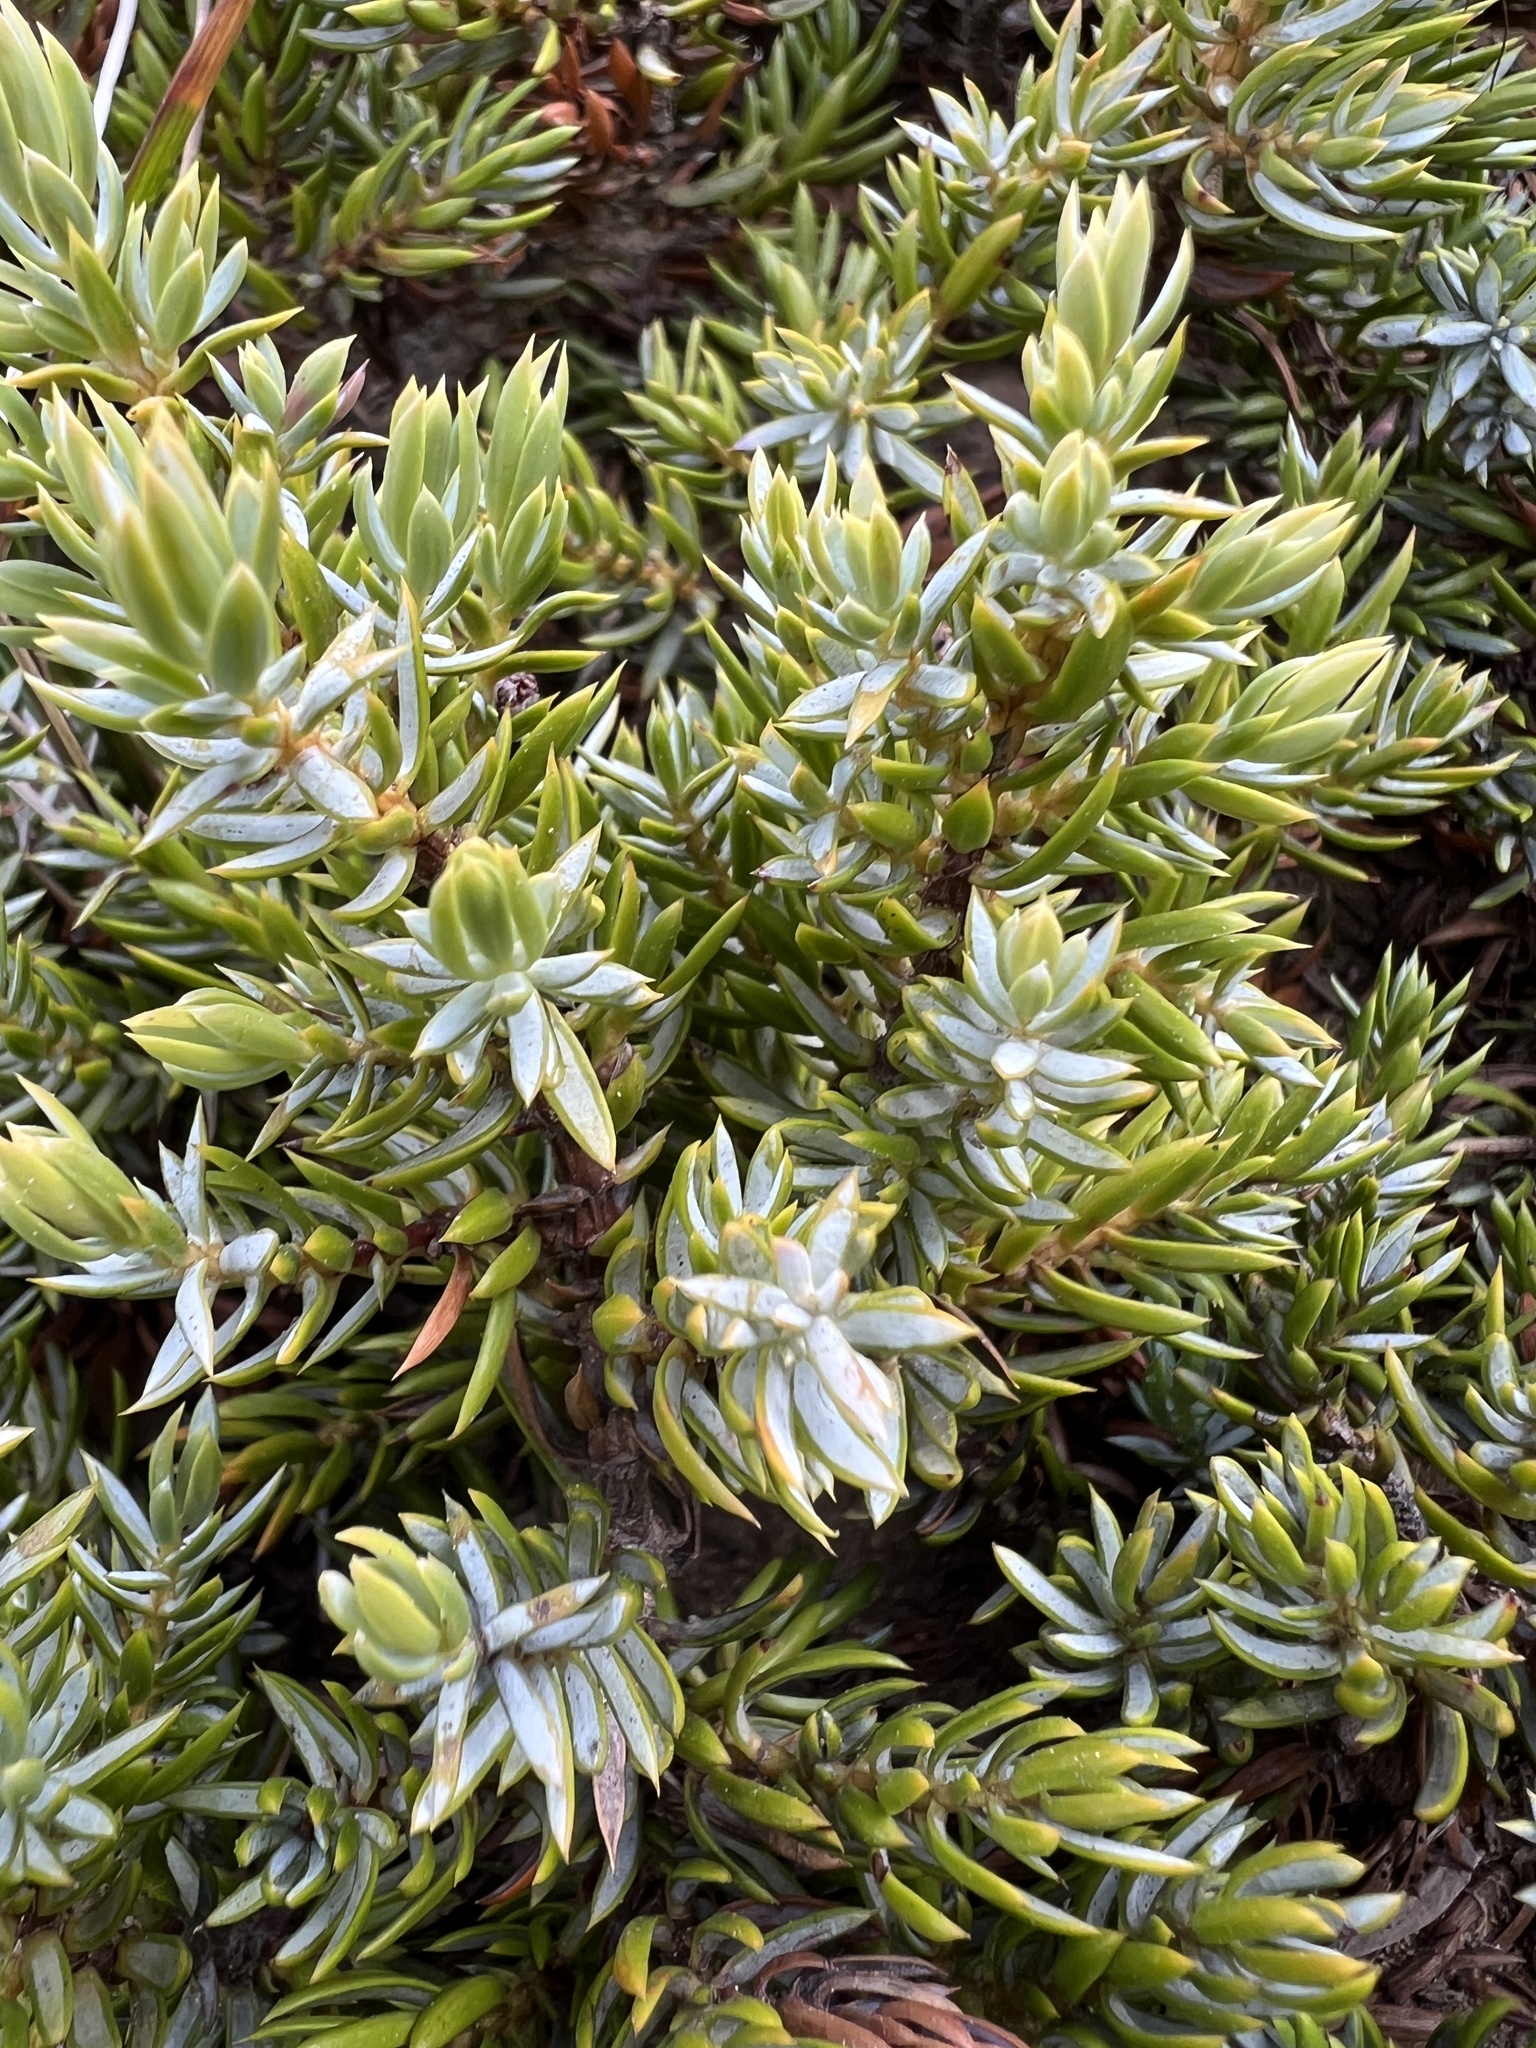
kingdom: Plantae
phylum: Tracheophyta
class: Pinopsida
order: Pinales
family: Cupressaceae
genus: Juniperus
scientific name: Juniperus communis
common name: Common juniper
